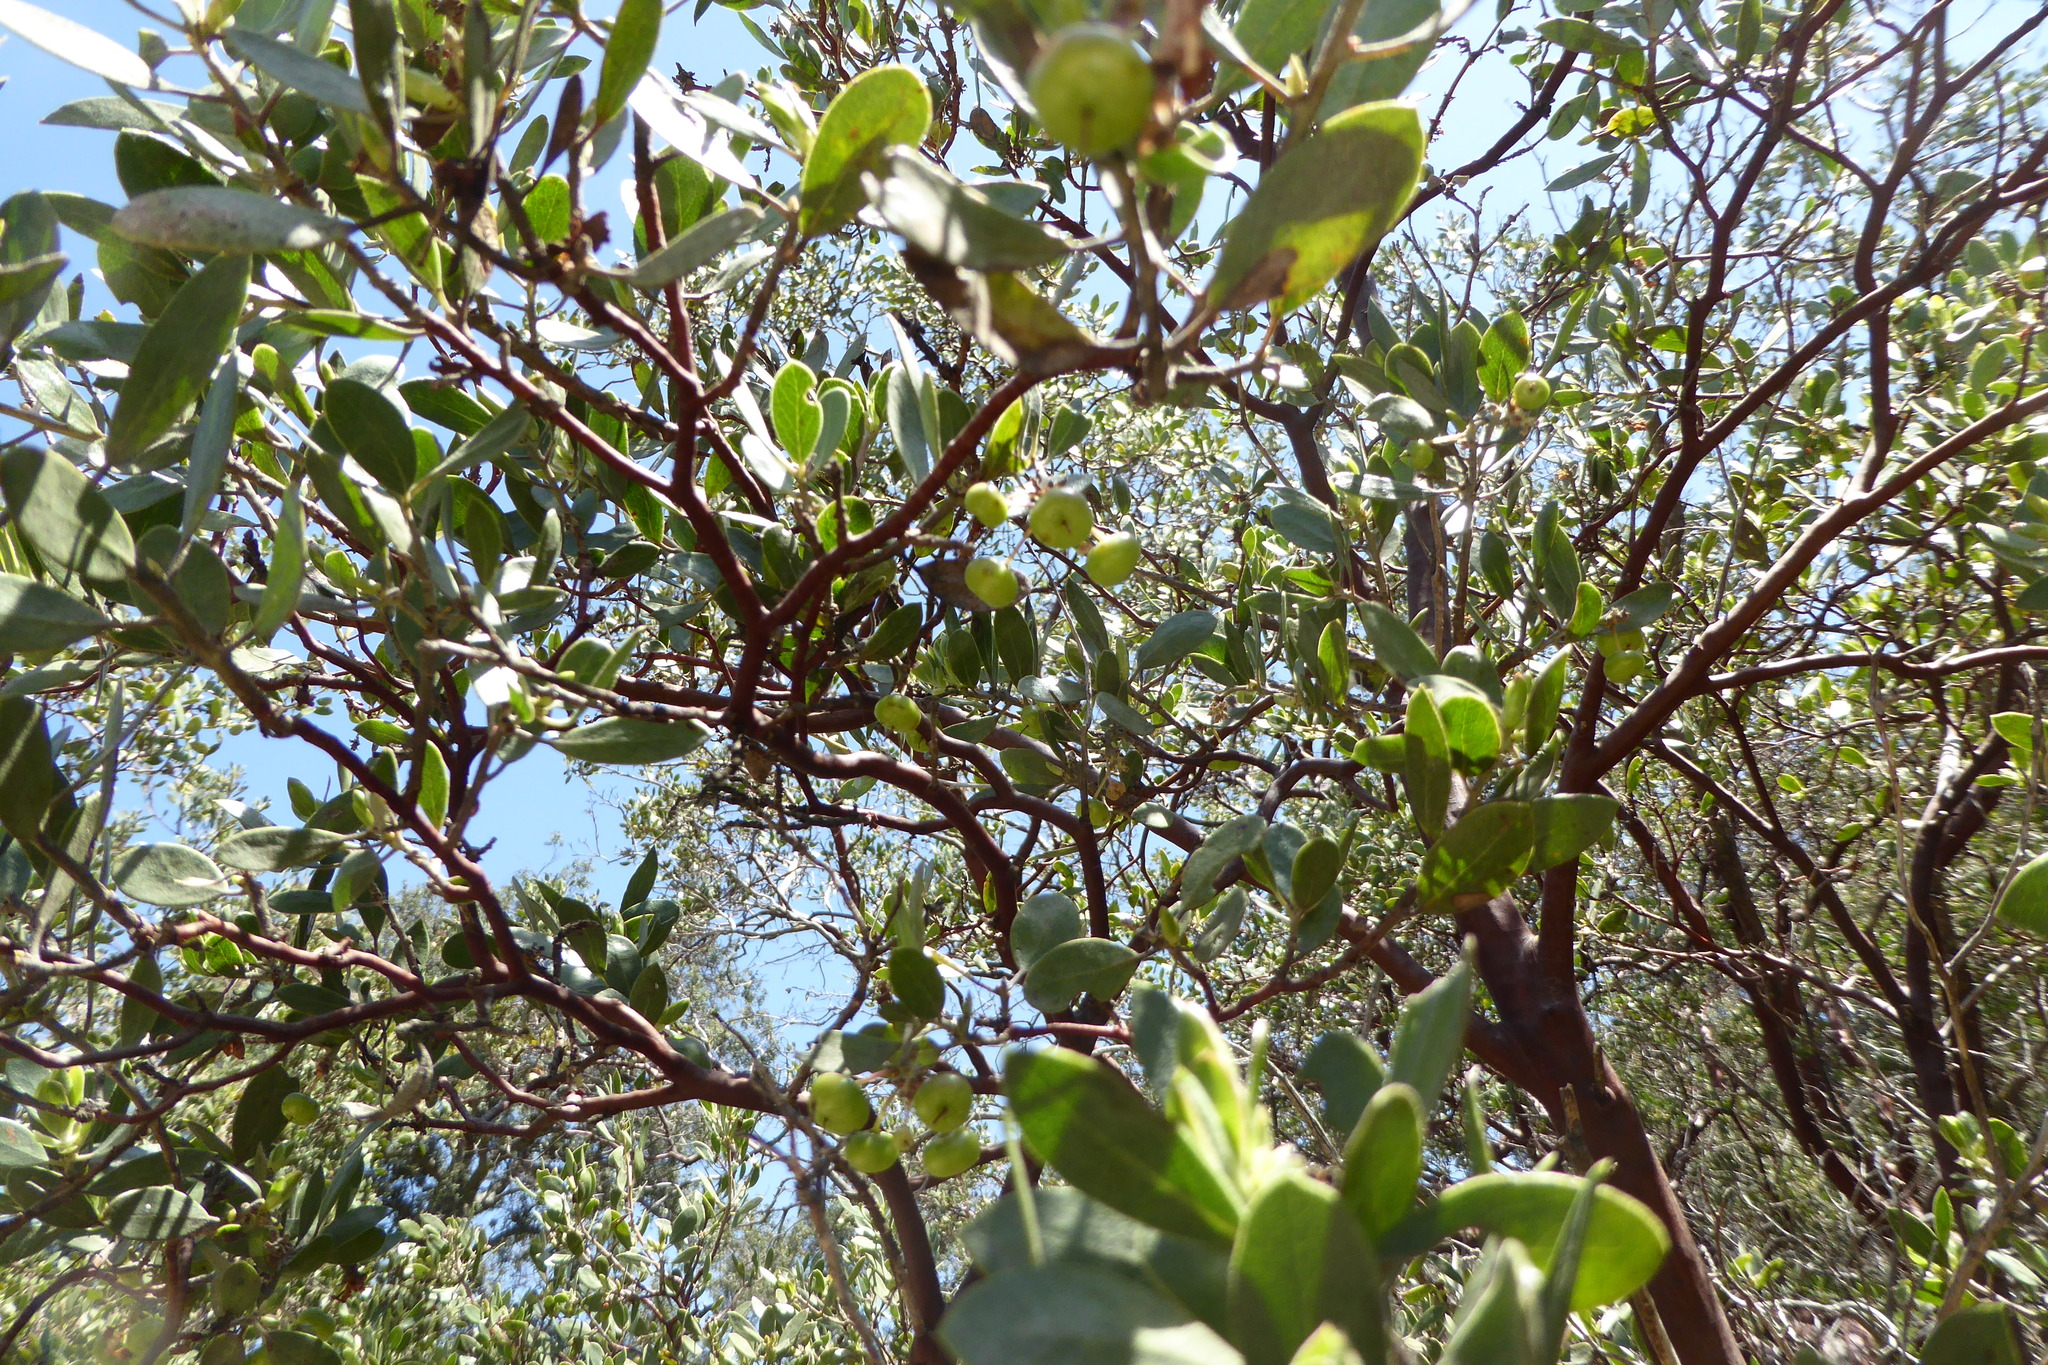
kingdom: Plantae
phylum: Tracheophyta
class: Magnoliopsida
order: Ericales
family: Ericaceae
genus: Arctostaphylos
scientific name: Arctostaphylos pungens
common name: Mexican manzanita
